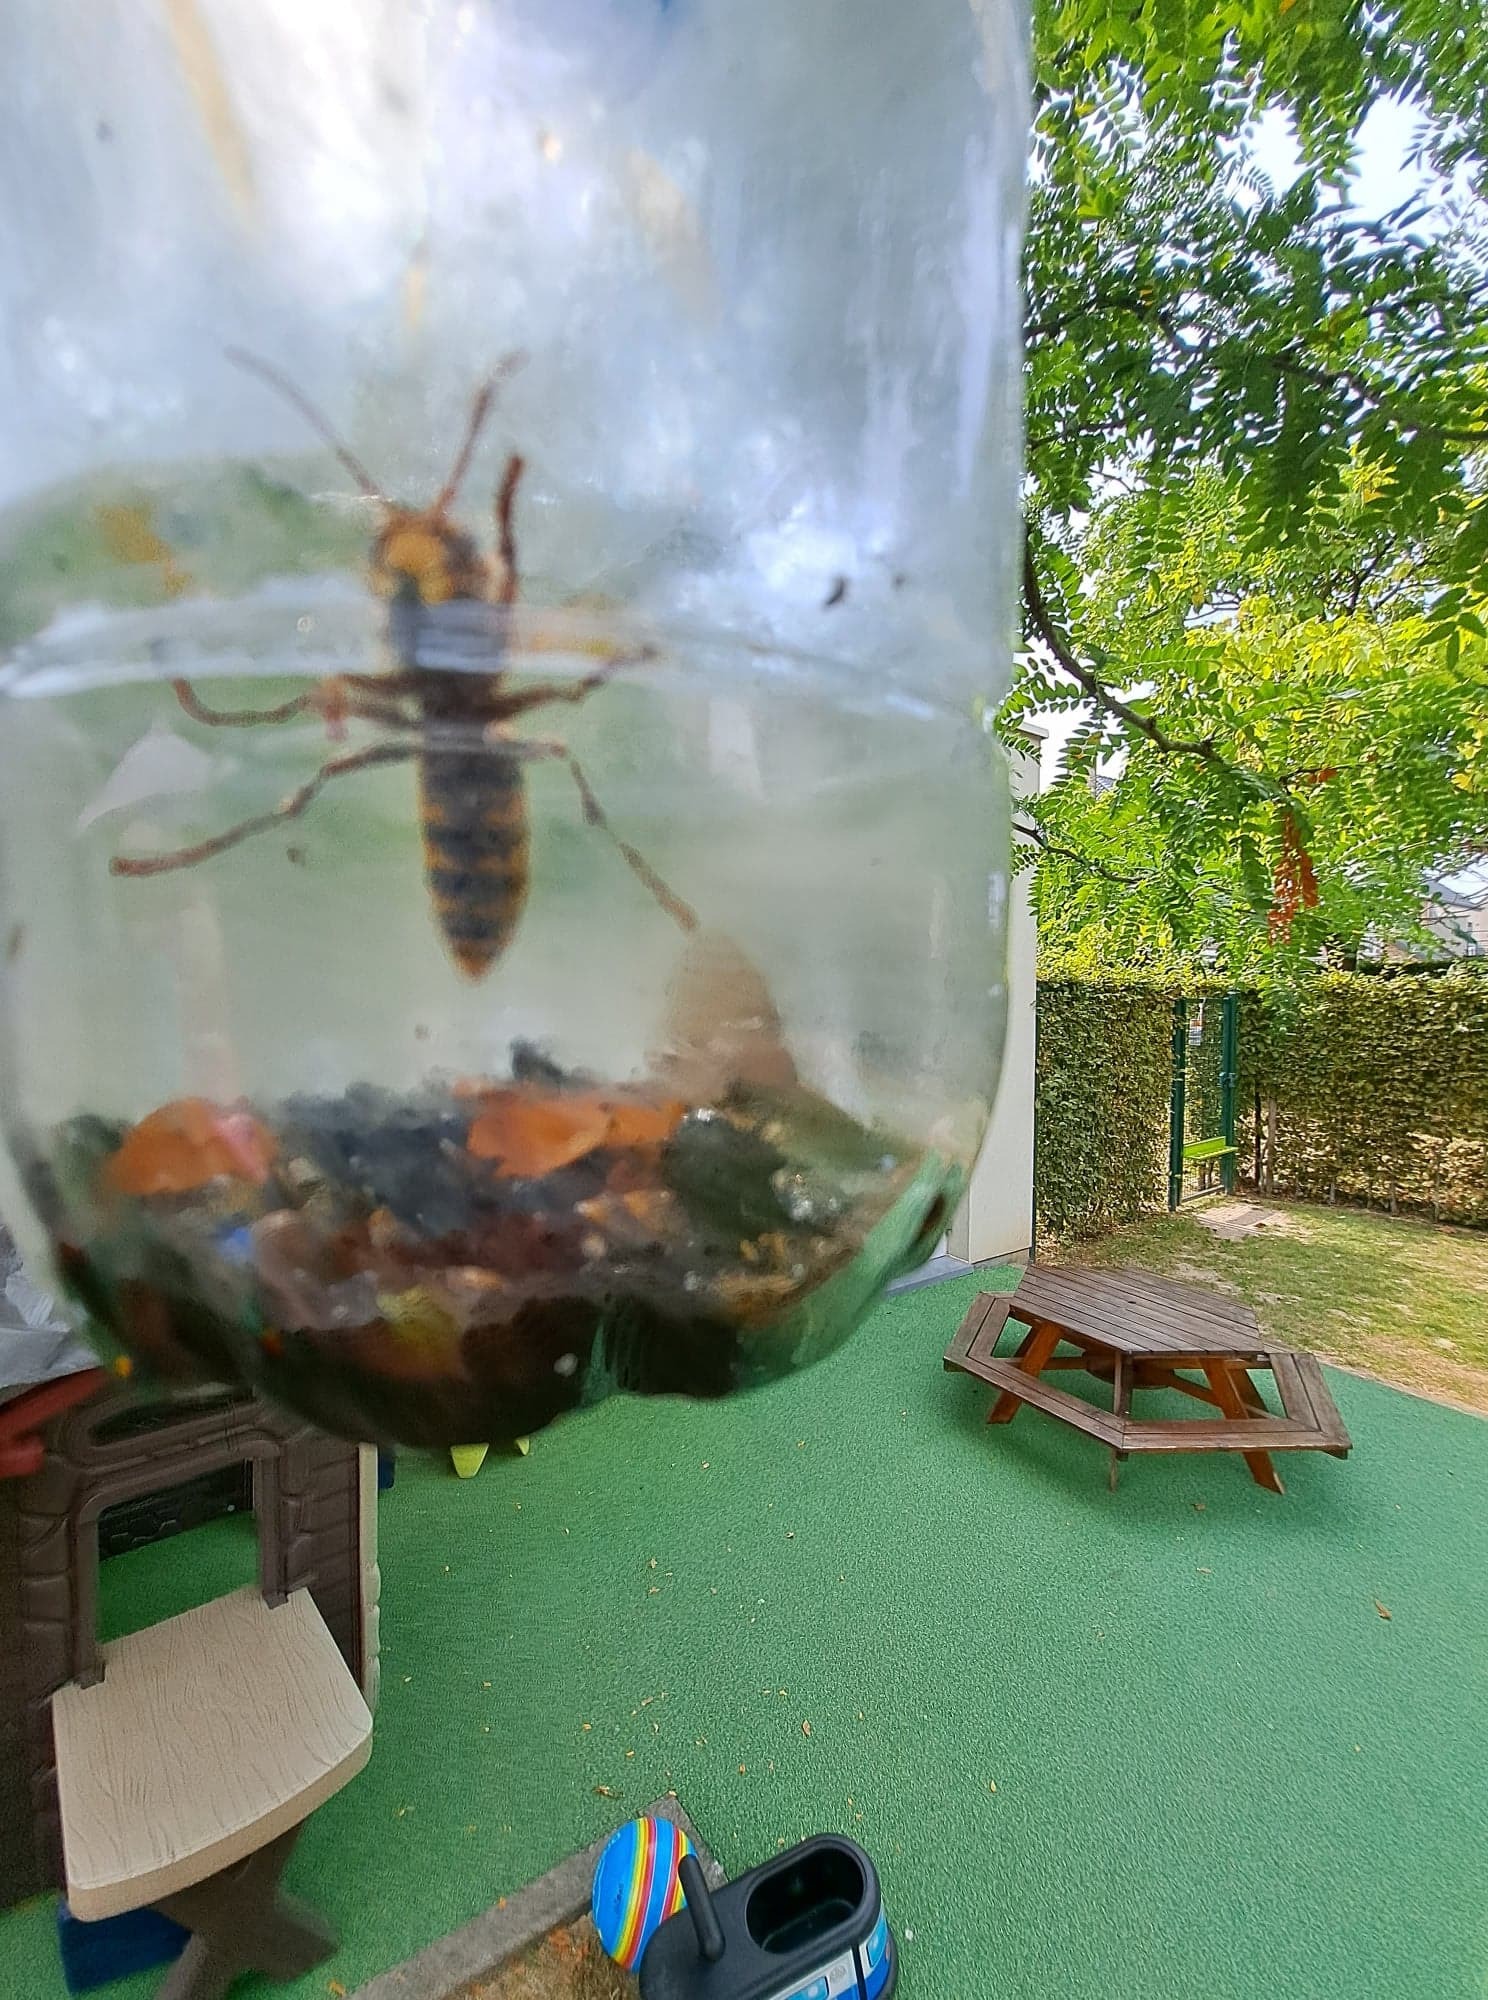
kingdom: Animalia
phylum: Arthropoda
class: Insecta
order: Hymenoptera
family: Vespidae
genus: Vespa
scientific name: Vespa crabro
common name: Hornet
